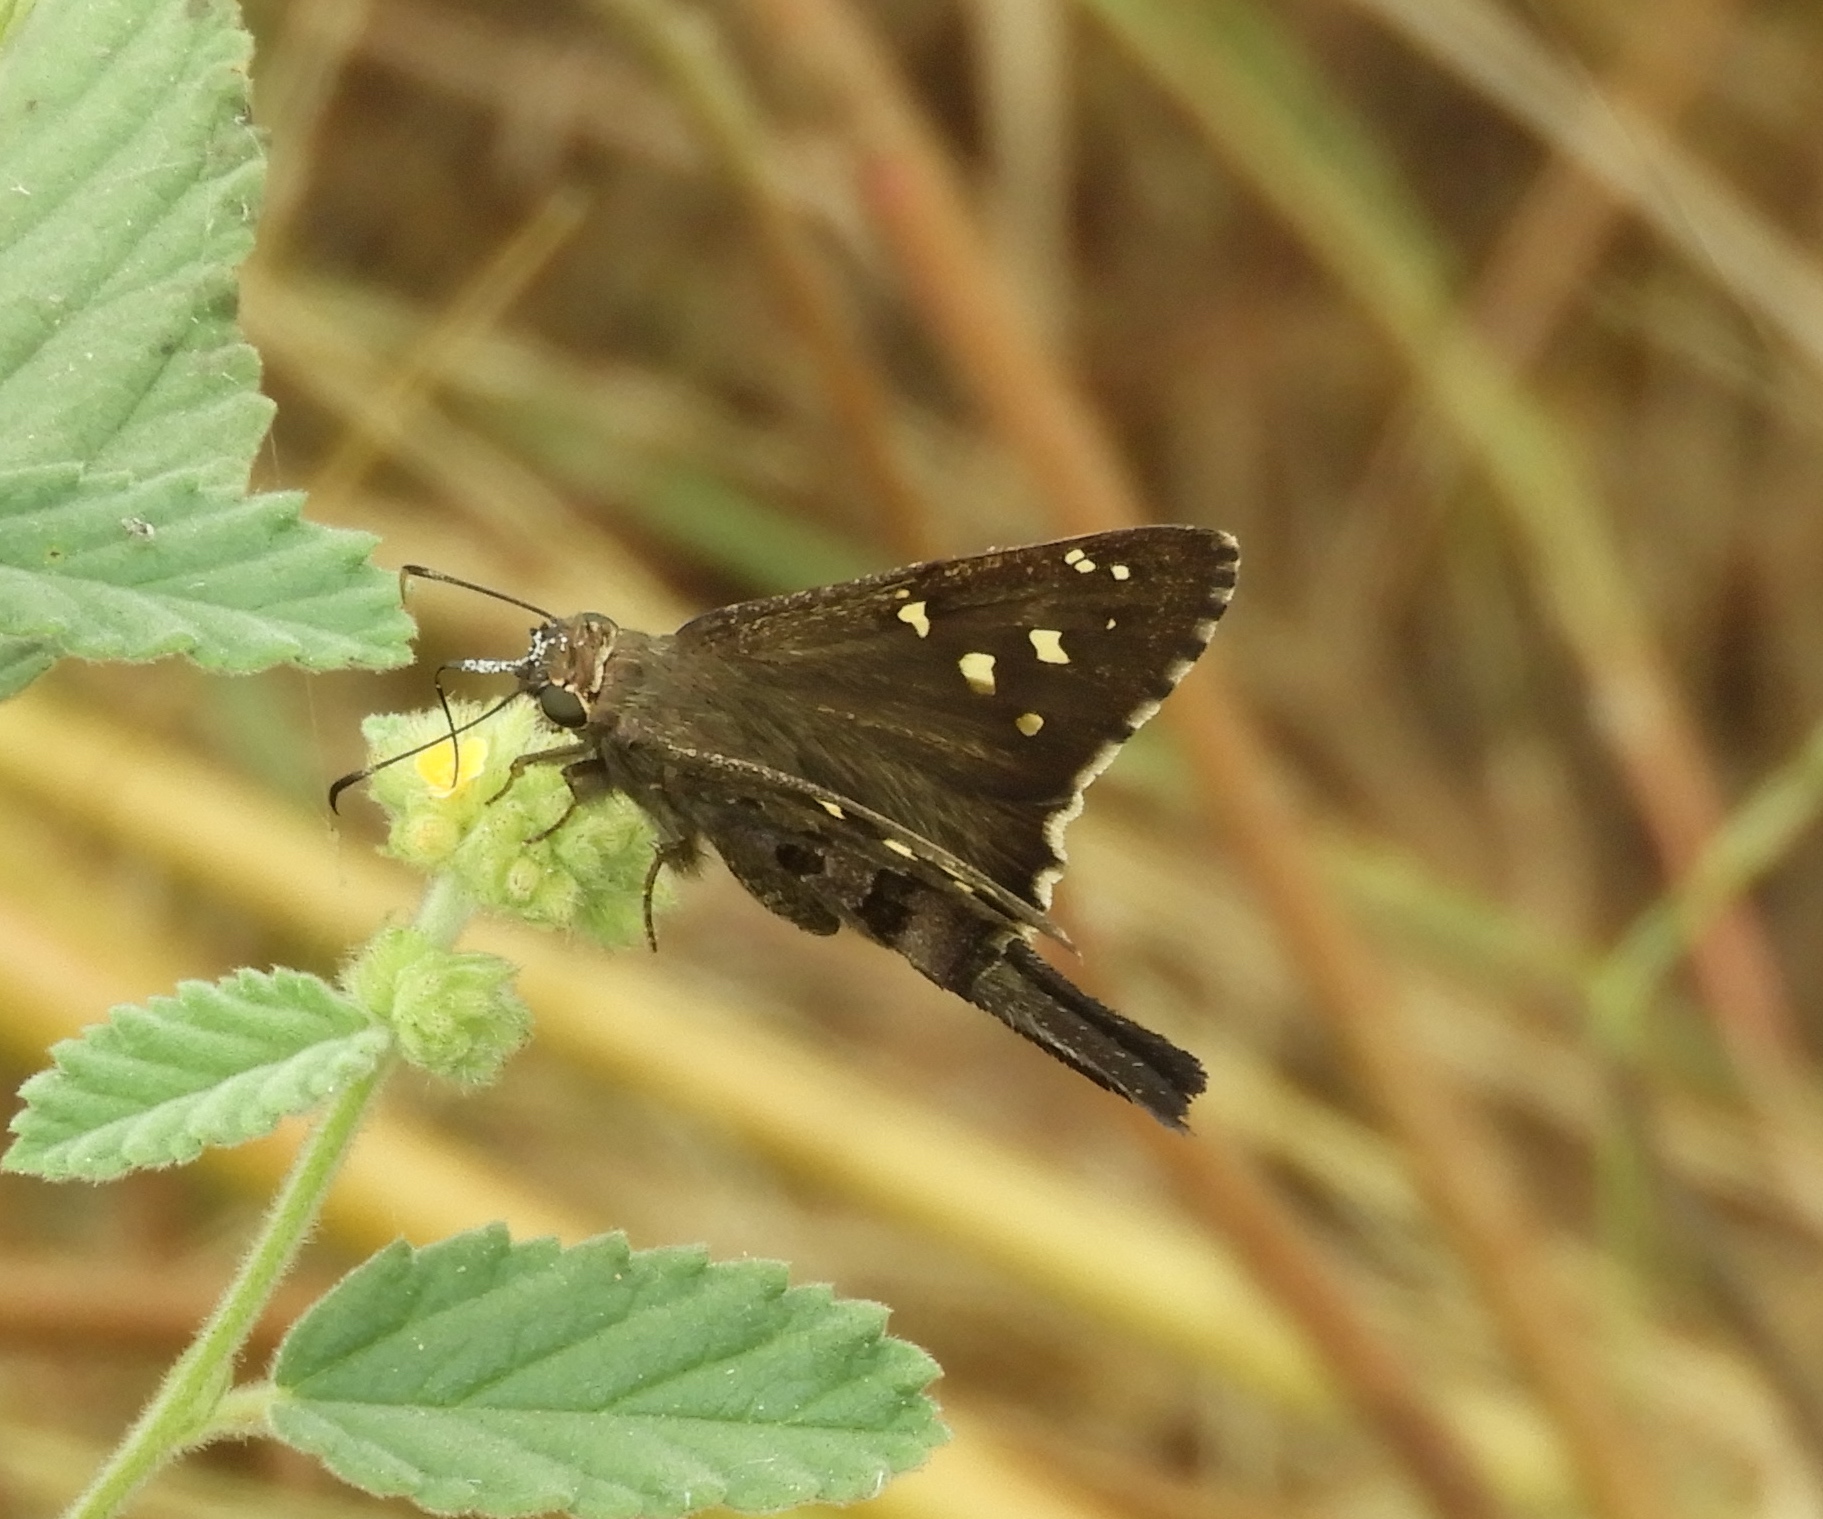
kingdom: Animalia
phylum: Arthropoda
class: Insecta
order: Lepidoptera
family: Hesperiidae
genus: Thorybes
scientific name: Thorybes
